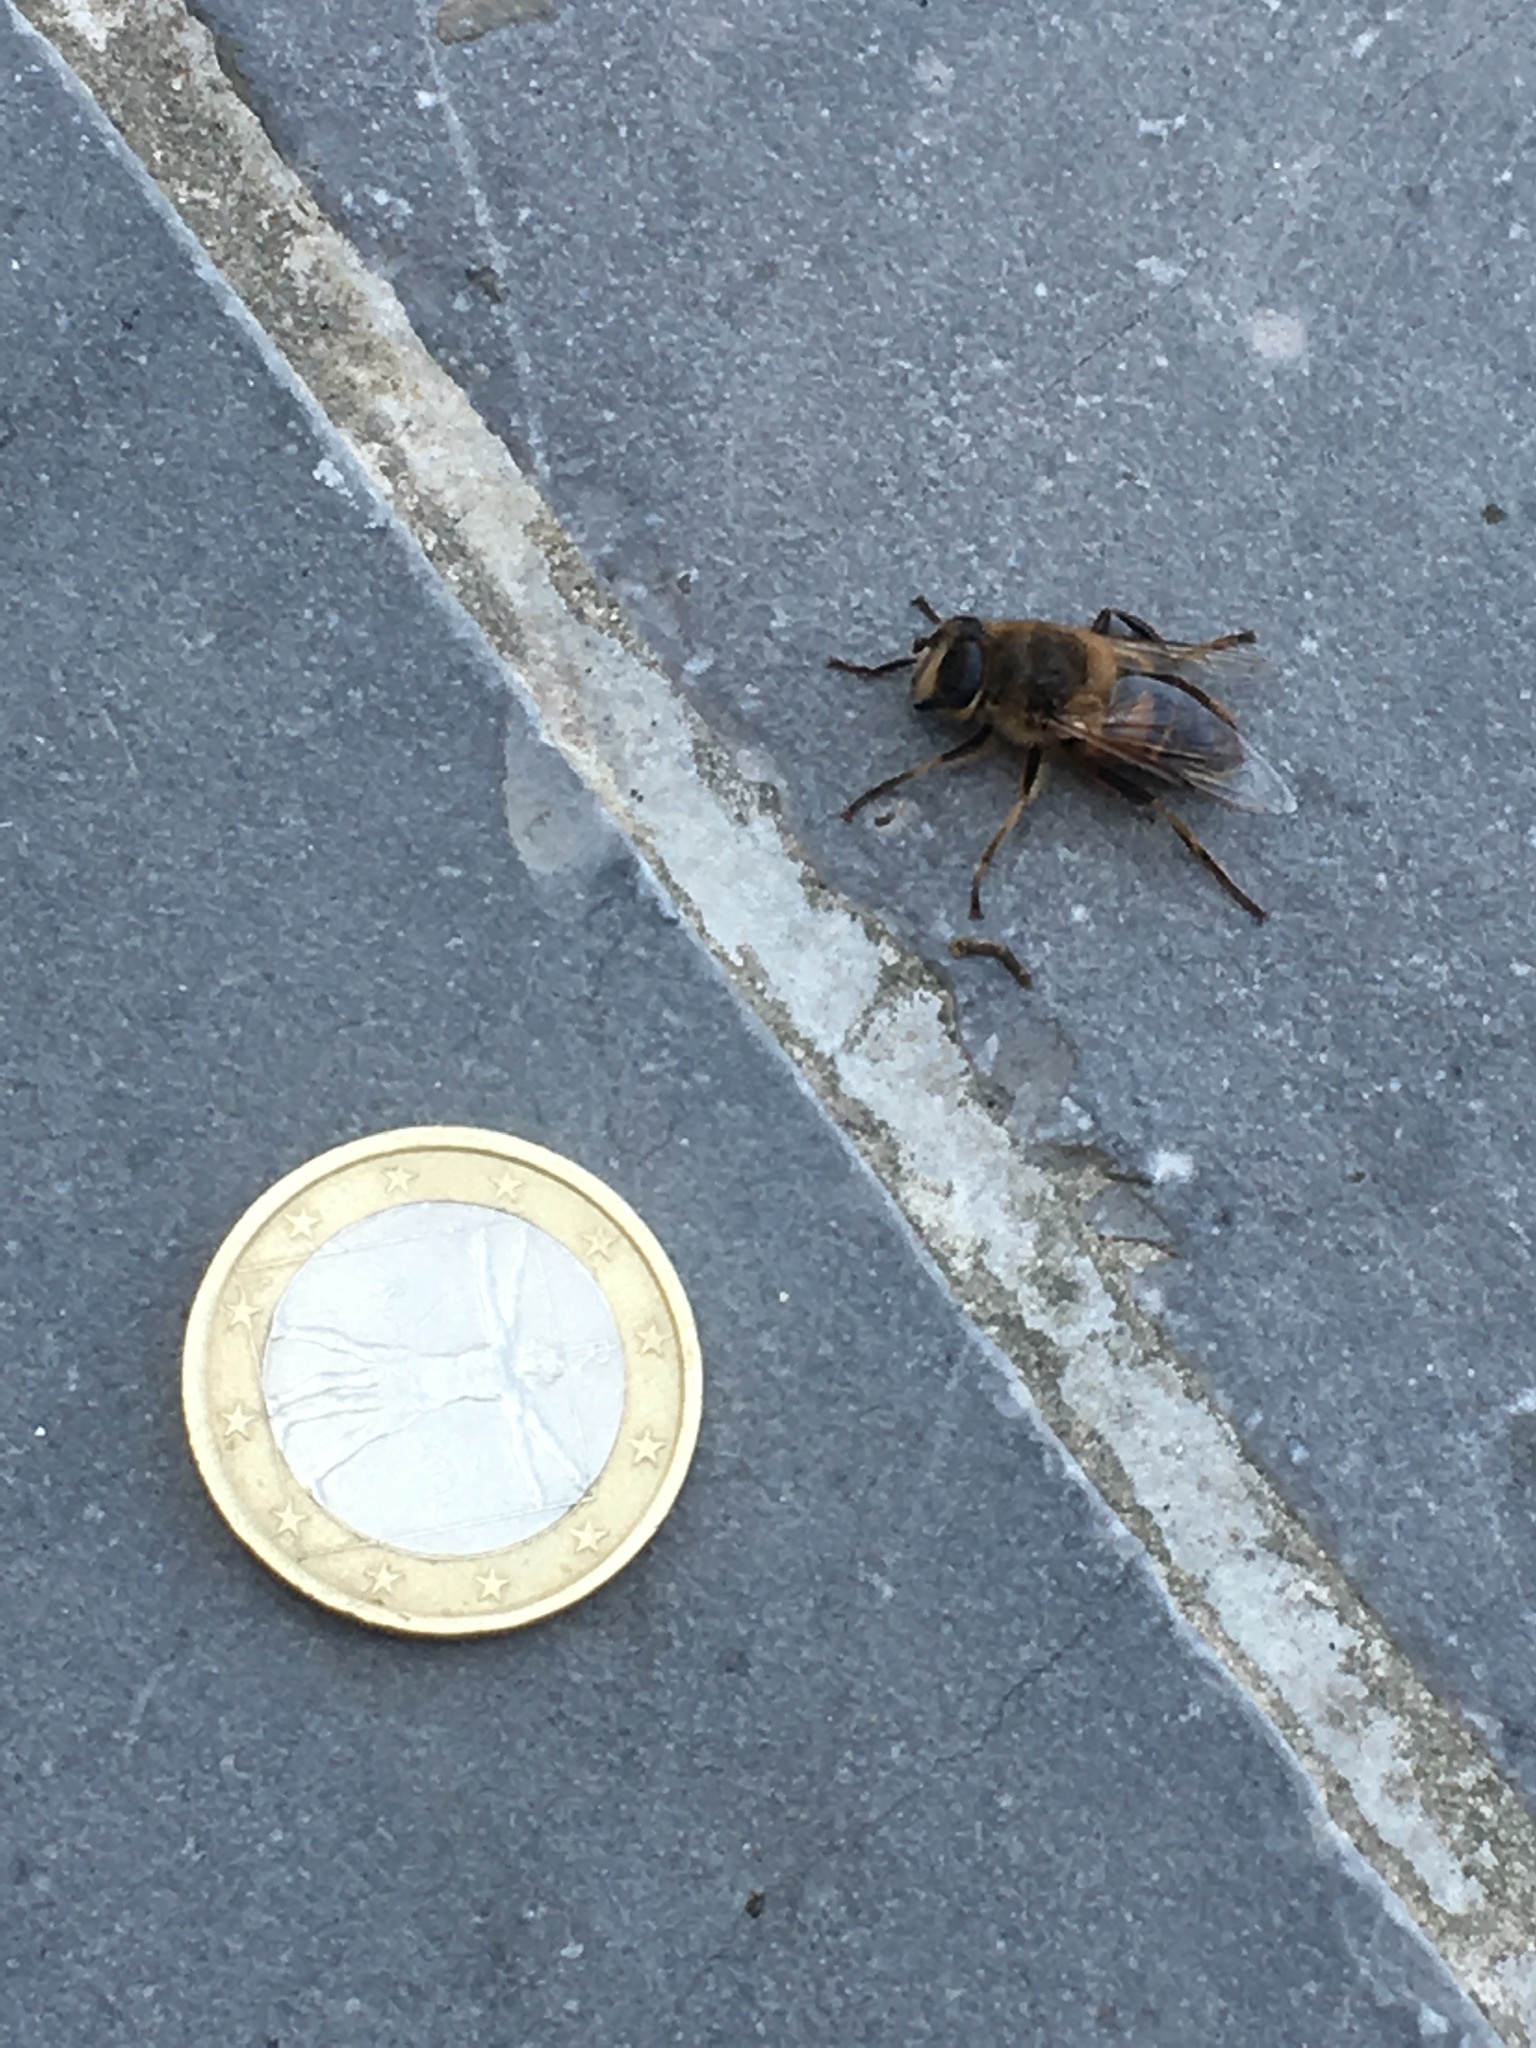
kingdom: Animalia
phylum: Arthropoda
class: Insecta
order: Diptera
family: Syrphidae
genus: Eristalis
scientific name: Eristalis tenax
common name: Drone fly
